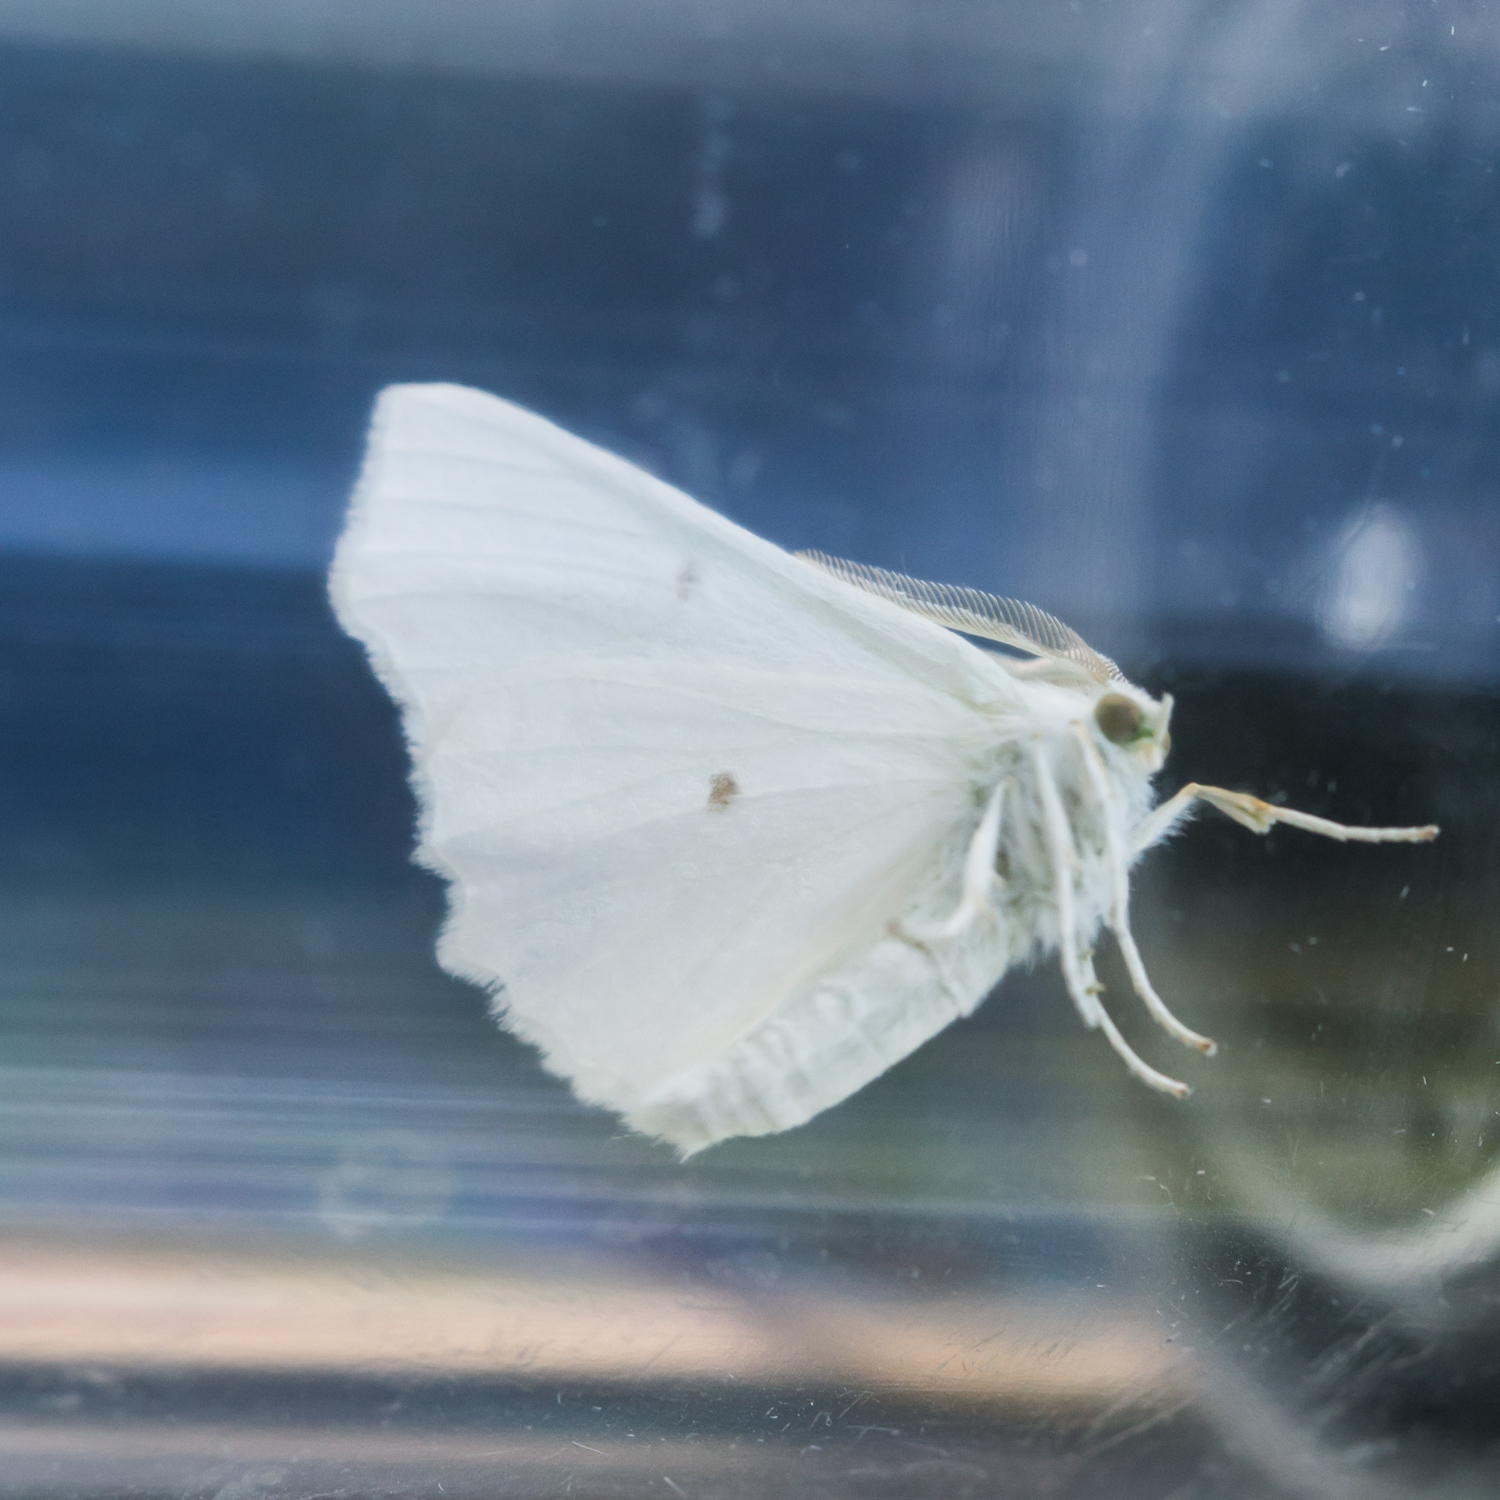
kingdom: Animalia
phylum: Arthropoda
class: Insecta
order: Lepidoptera
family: Geometridae
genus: Ennomos
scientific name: Ennomos subsignaria
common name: Elm spanworm
